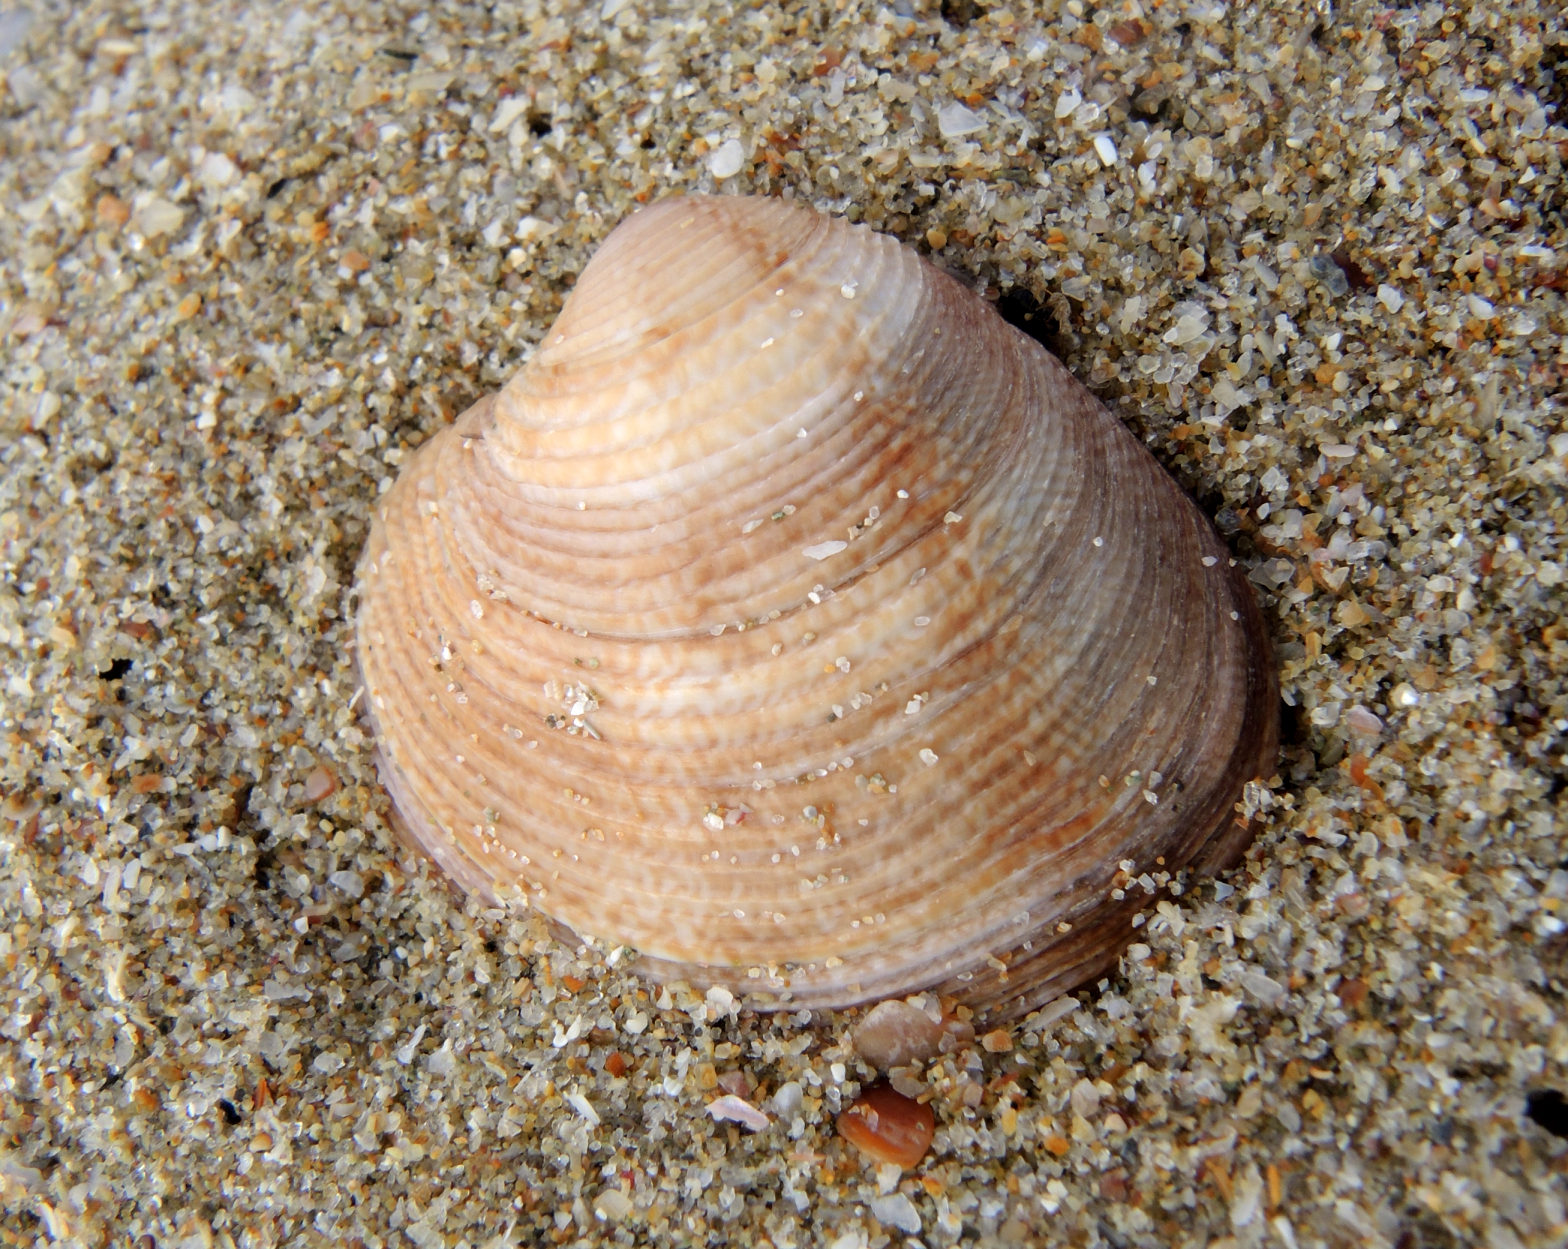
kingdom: Animalia
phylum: Mollusca
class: Bivalvia
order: Venerida
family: Veneridae
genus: Chamelea
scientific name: Chamelea gallina
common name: Chicken venus
